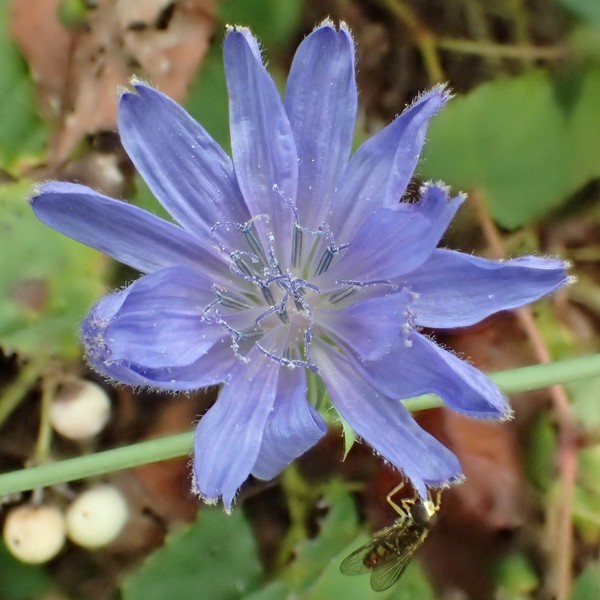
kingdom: Plantae
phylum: Tracheophyta
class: Magnoliopsida
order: Asterales
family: Asteraceae
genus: Cichorium
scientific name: Cichorium intybus
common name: Chicory
